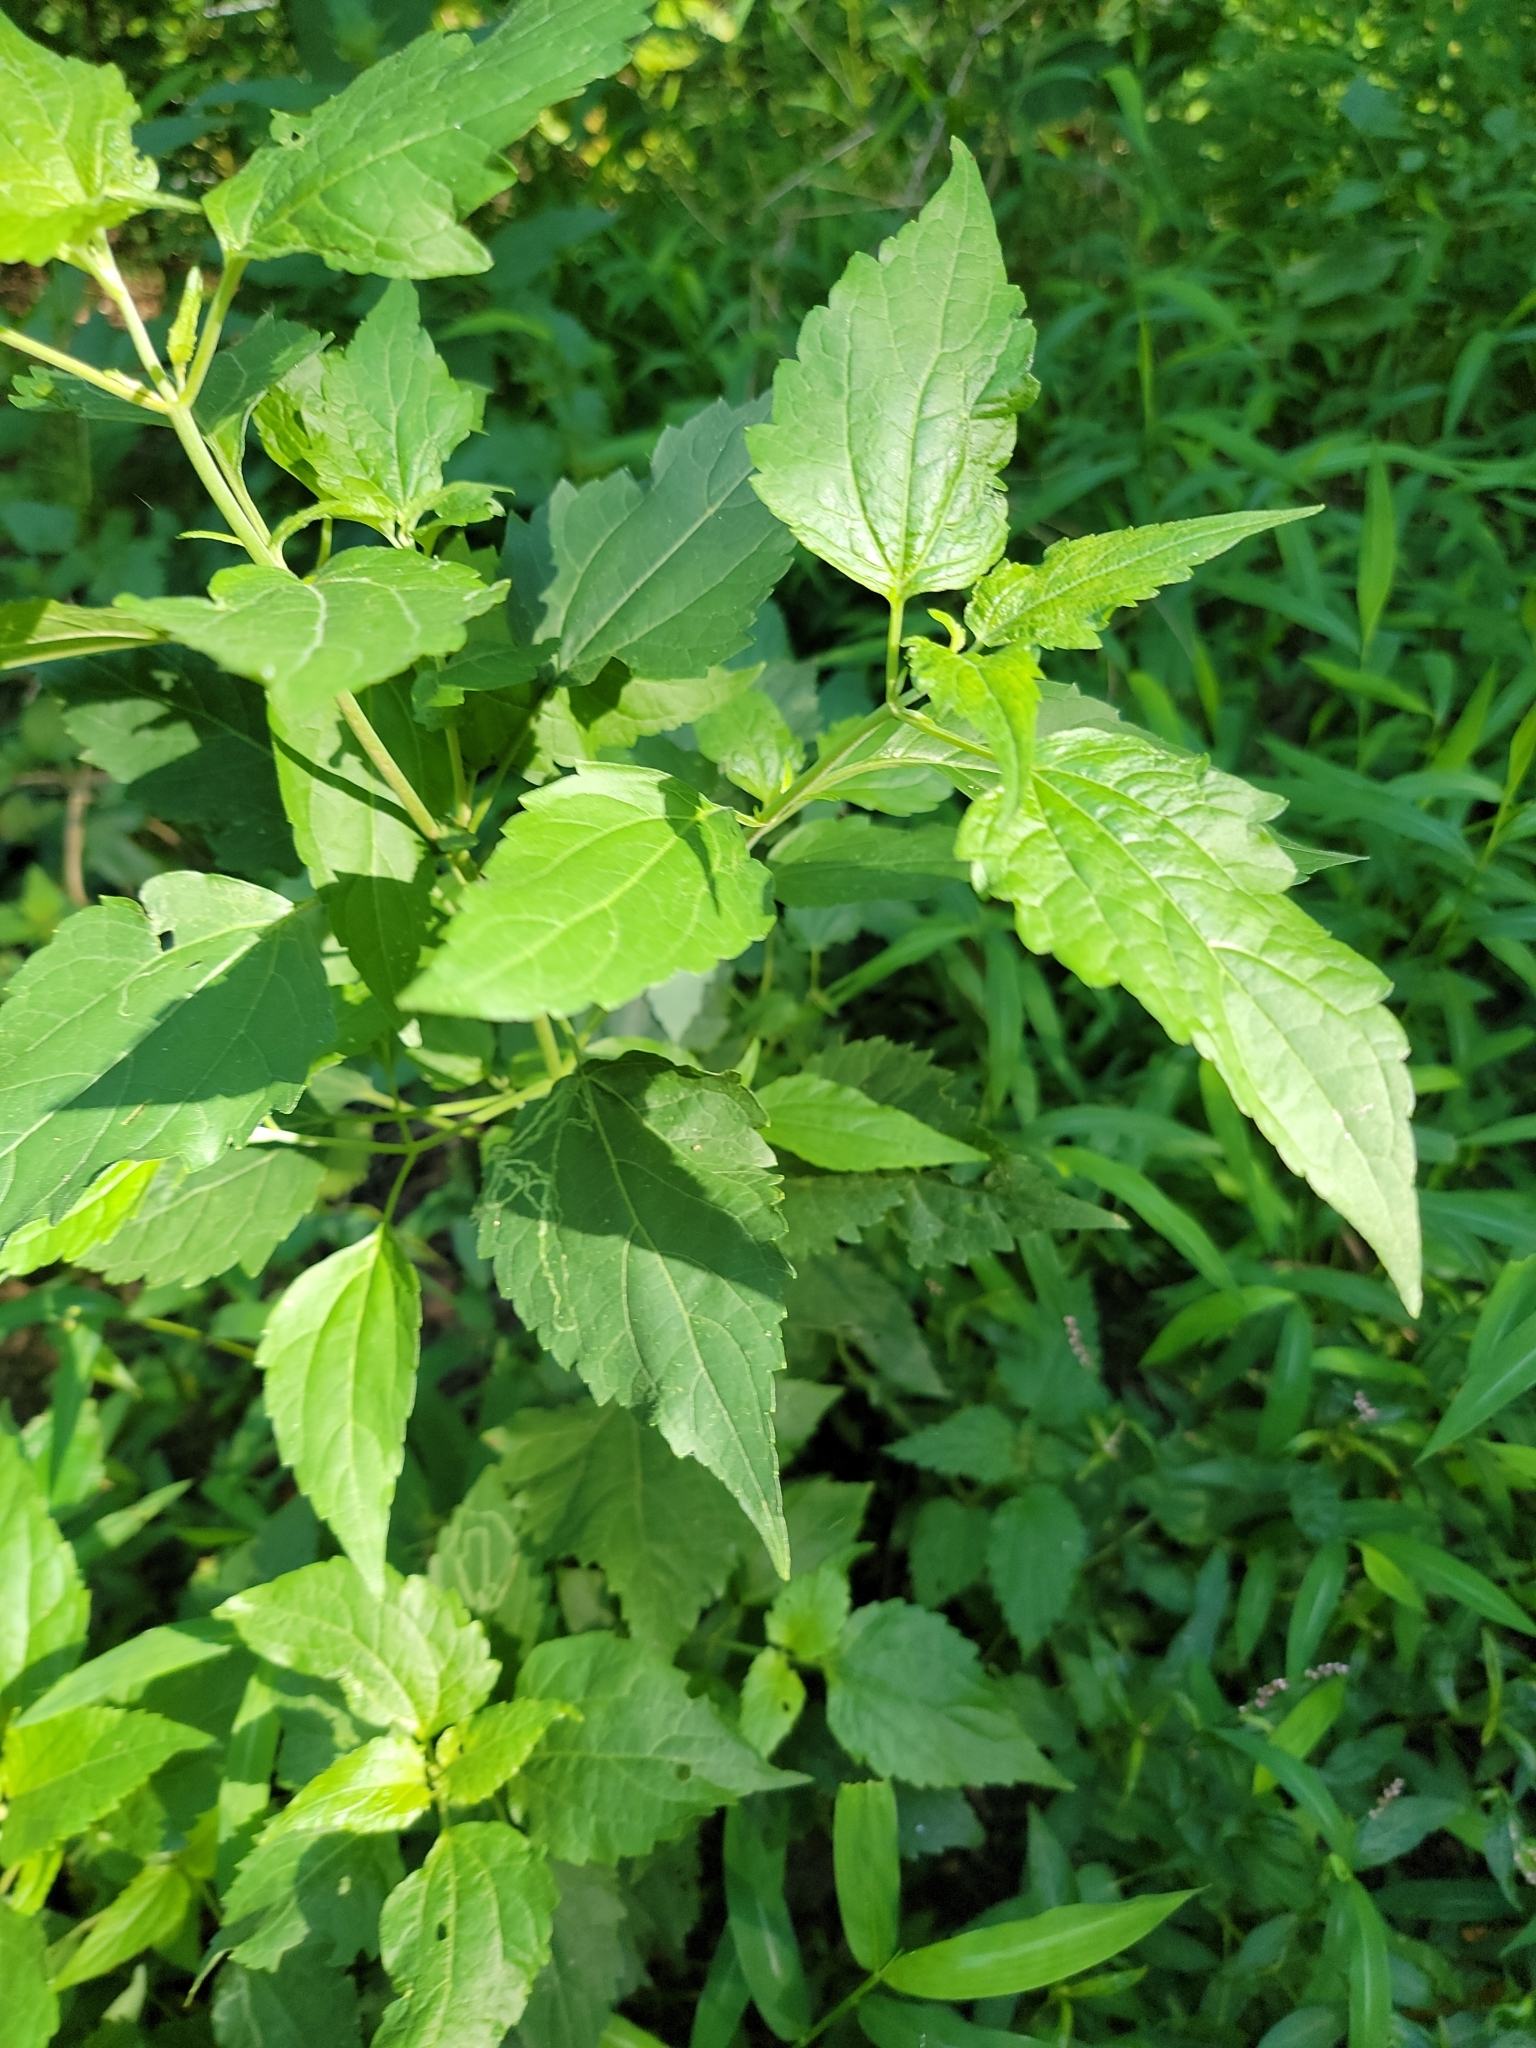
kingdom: Plantae
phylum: Tracheophyta
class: Magnoliopsida
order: Asterales
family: Asteraceae
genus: Ageratina
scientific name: Ageratina altissima
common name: White snakeroot
